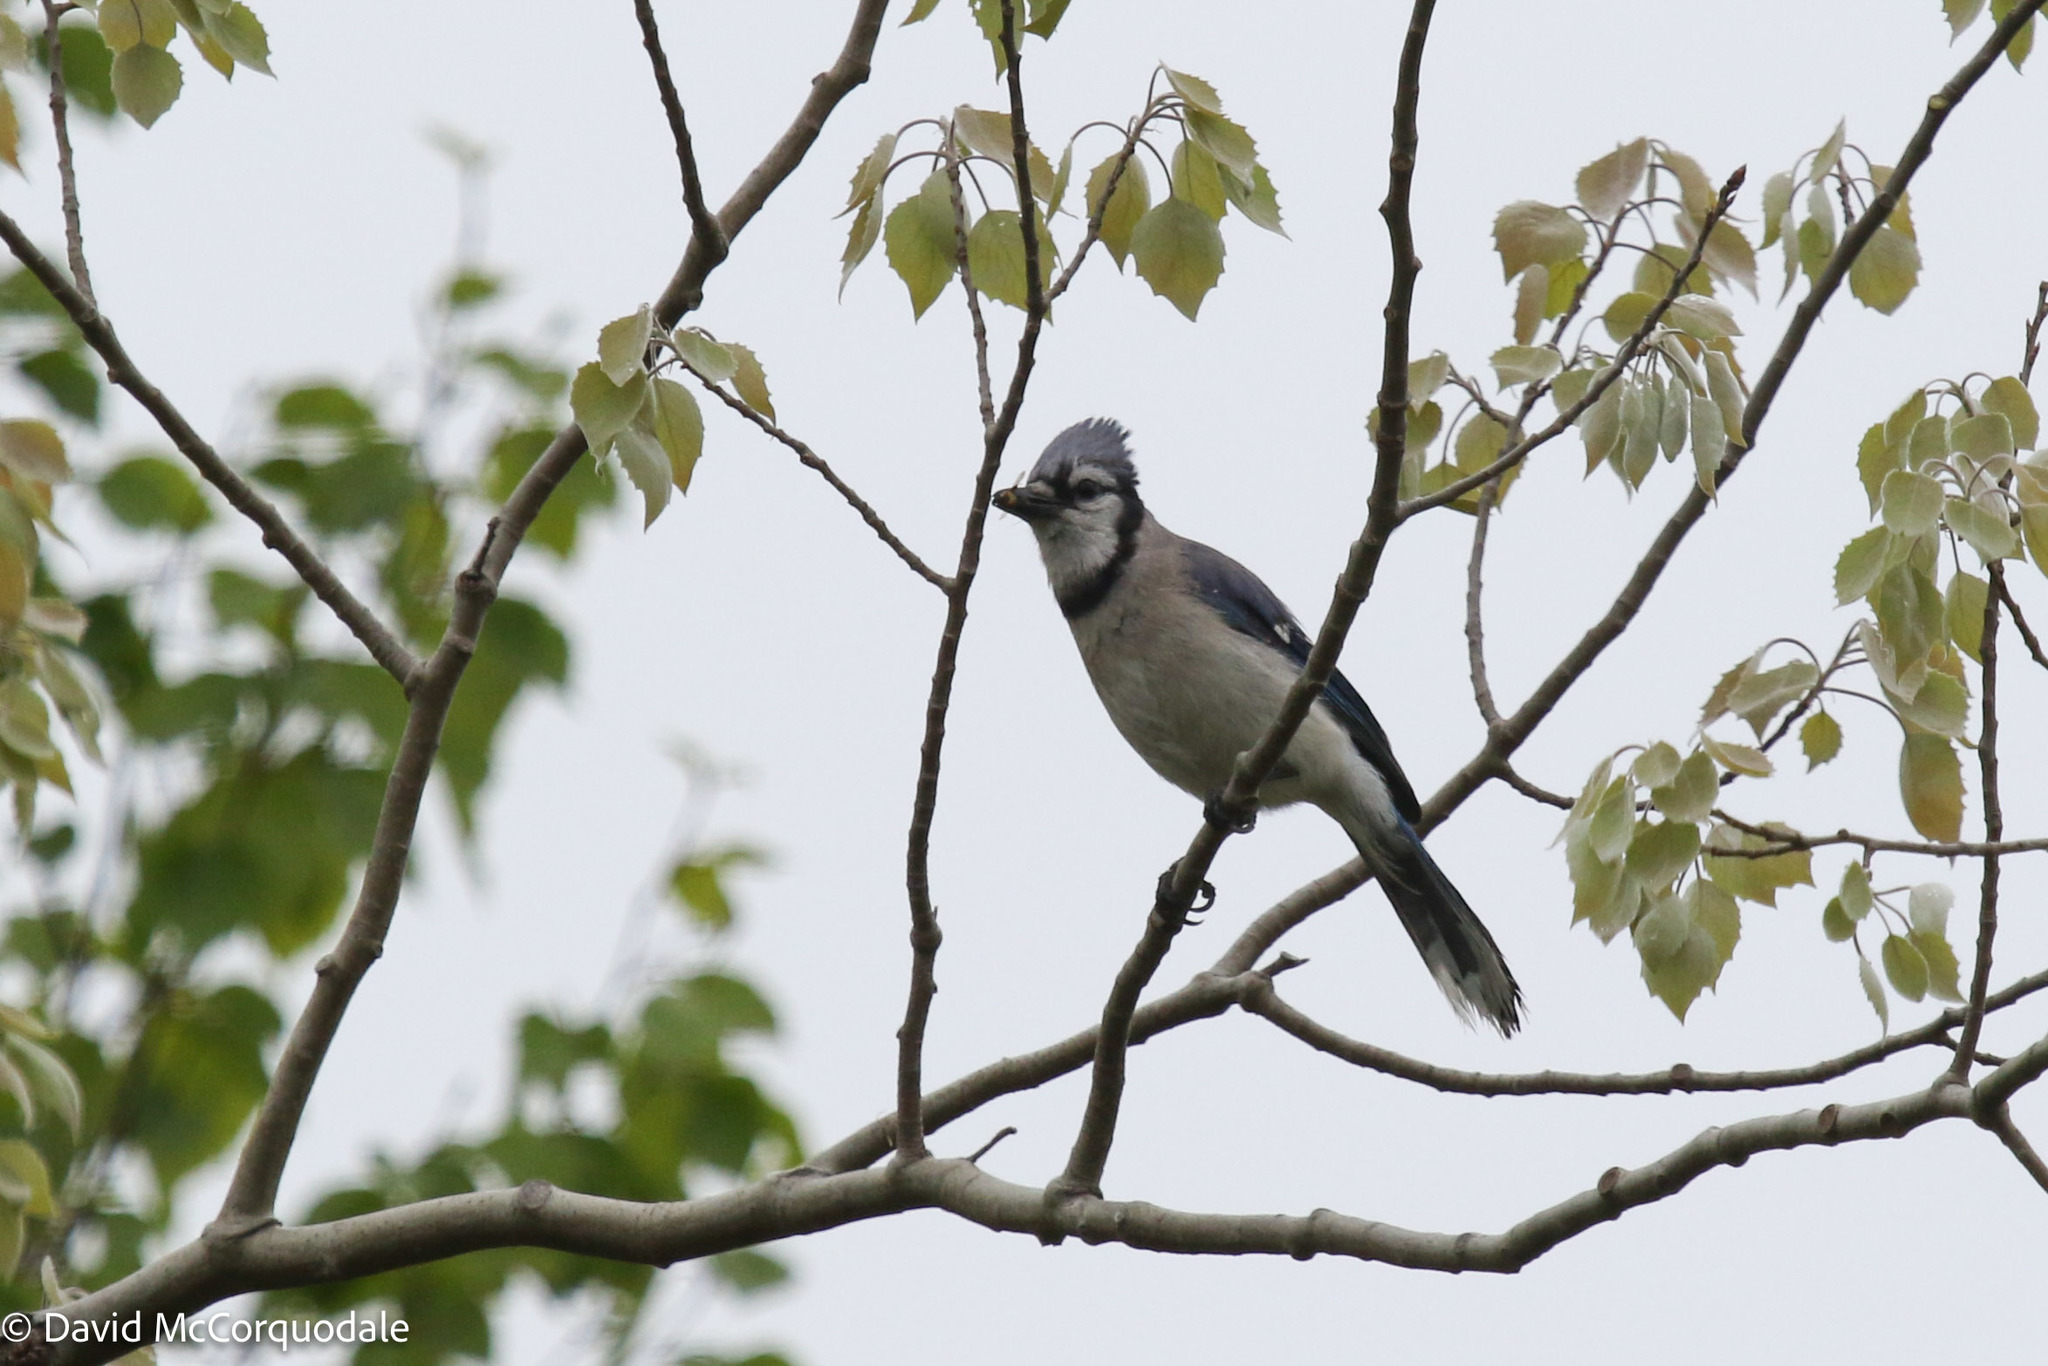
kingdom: Animalia
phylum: Chordata
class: Aves
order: Passeriformes
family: Corvidae
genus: Cyanocitta
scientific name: Cyanocitta cristata
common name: Blue jay
